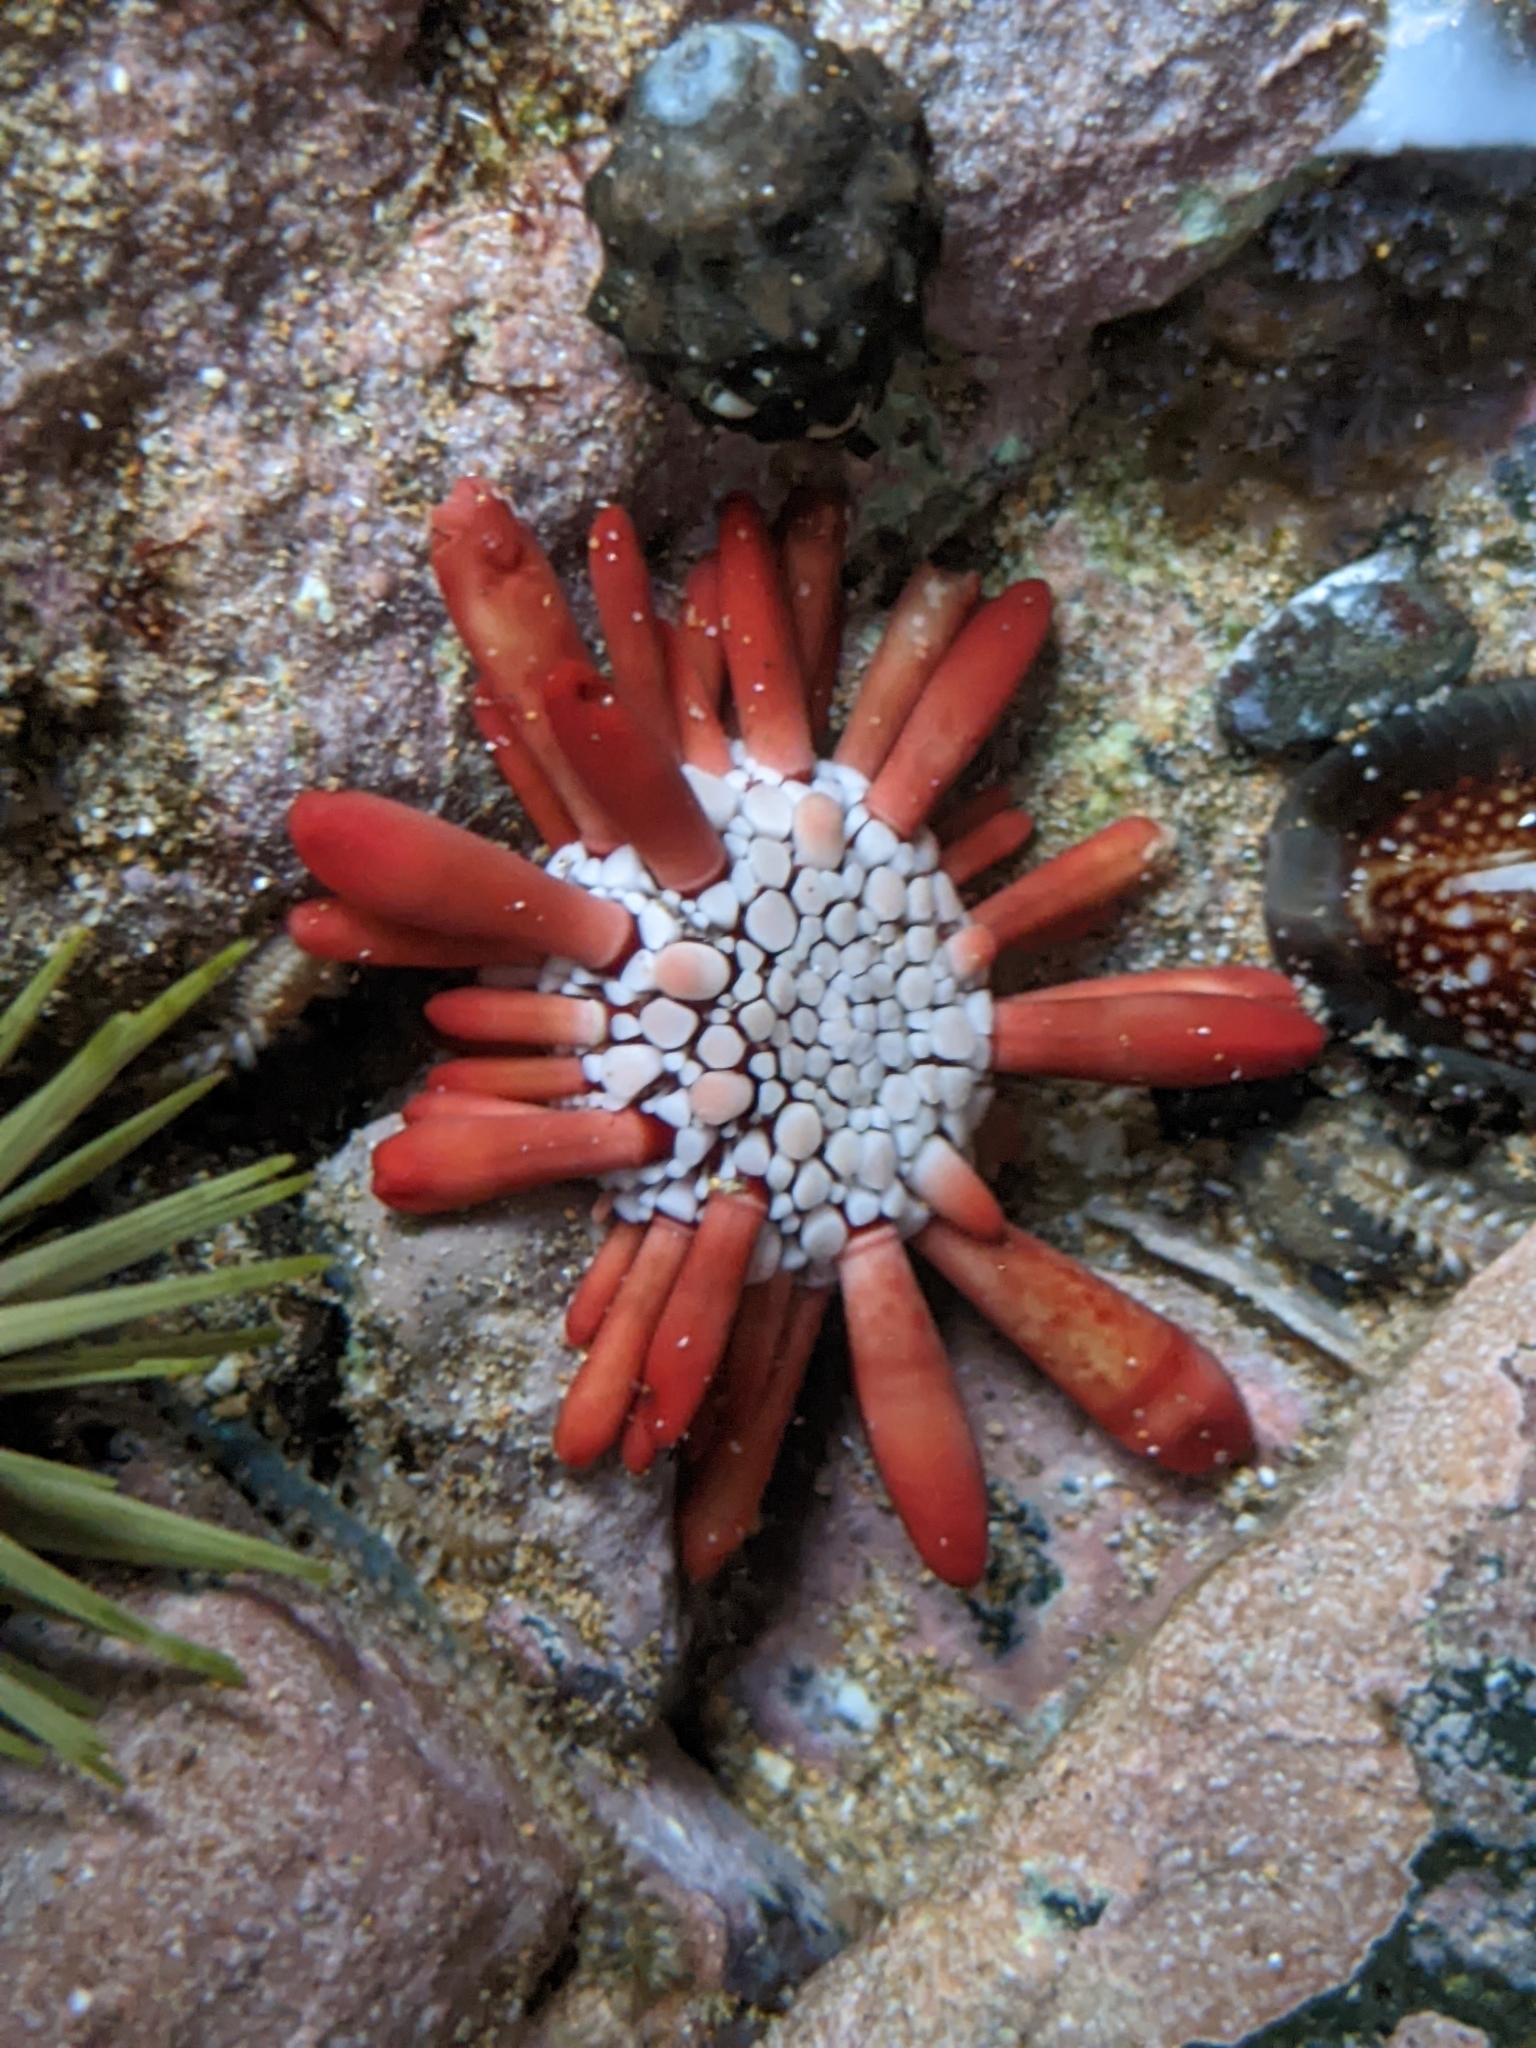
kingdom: Animalia
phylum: Echinodermata
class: Echinoidea
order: Camarodonta
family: Echinometridae
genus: Heterocentrotus
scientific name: Heterocentrotus mamillatus
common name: Slate pencil urchin
